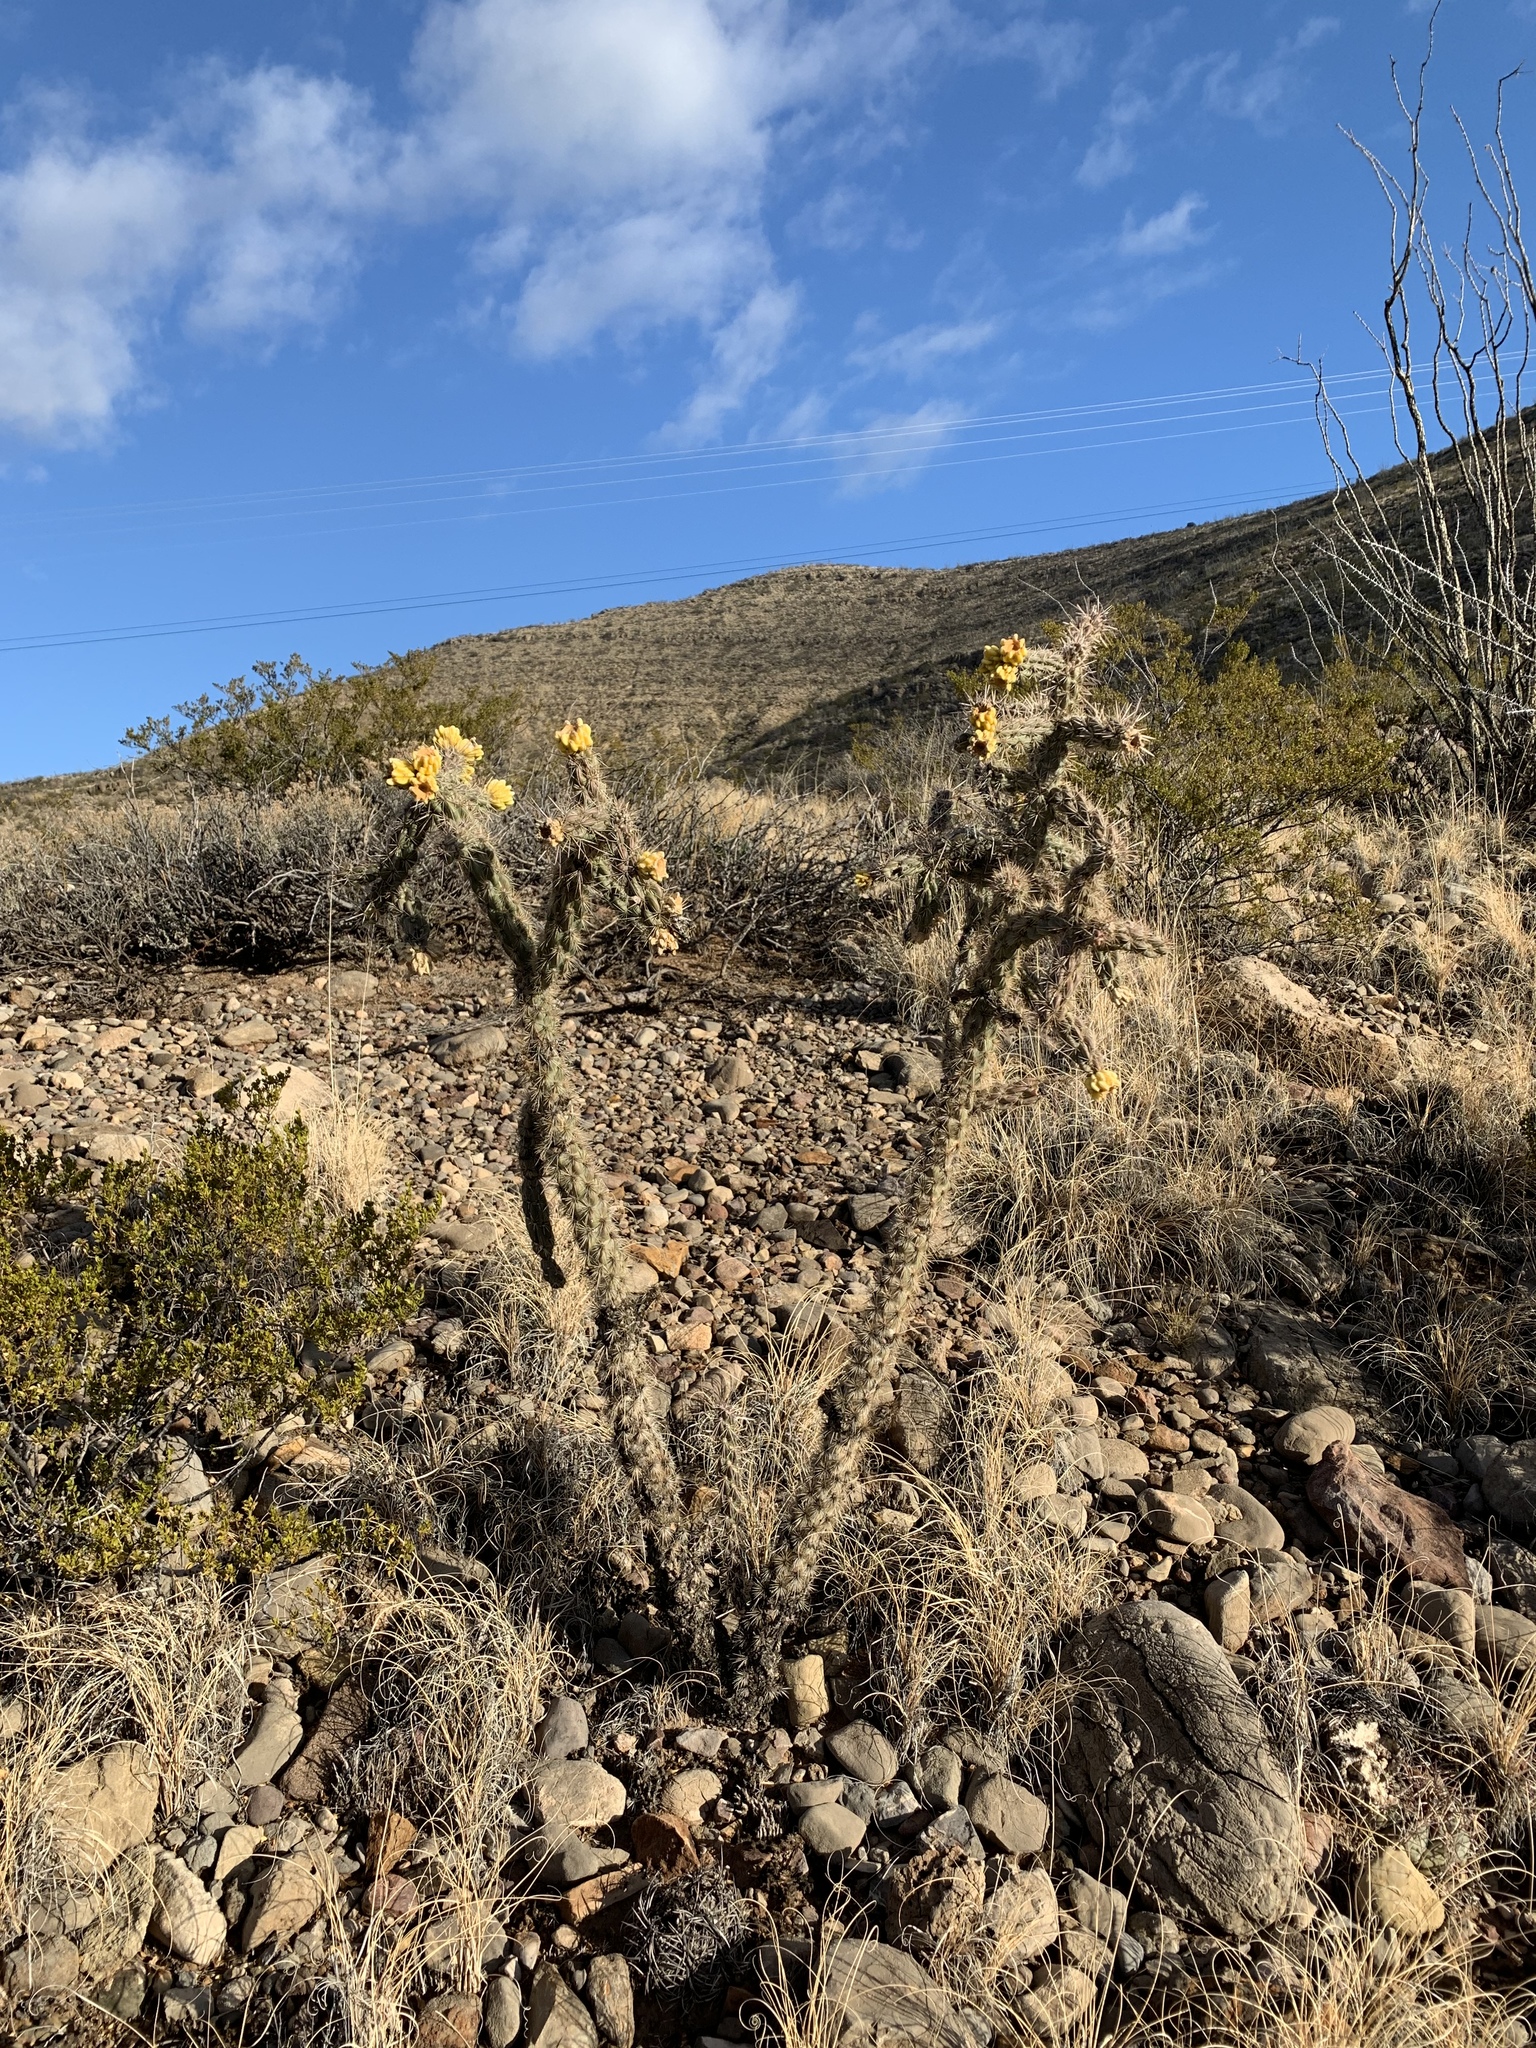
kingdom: Plantae
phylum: Tracheophyta
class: Magnoliopsida
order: Caryophyllales
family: Cactaceae
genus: Cylindropuntia
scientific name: Cylindropuntia imbricata
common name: Candelabrum cactus
